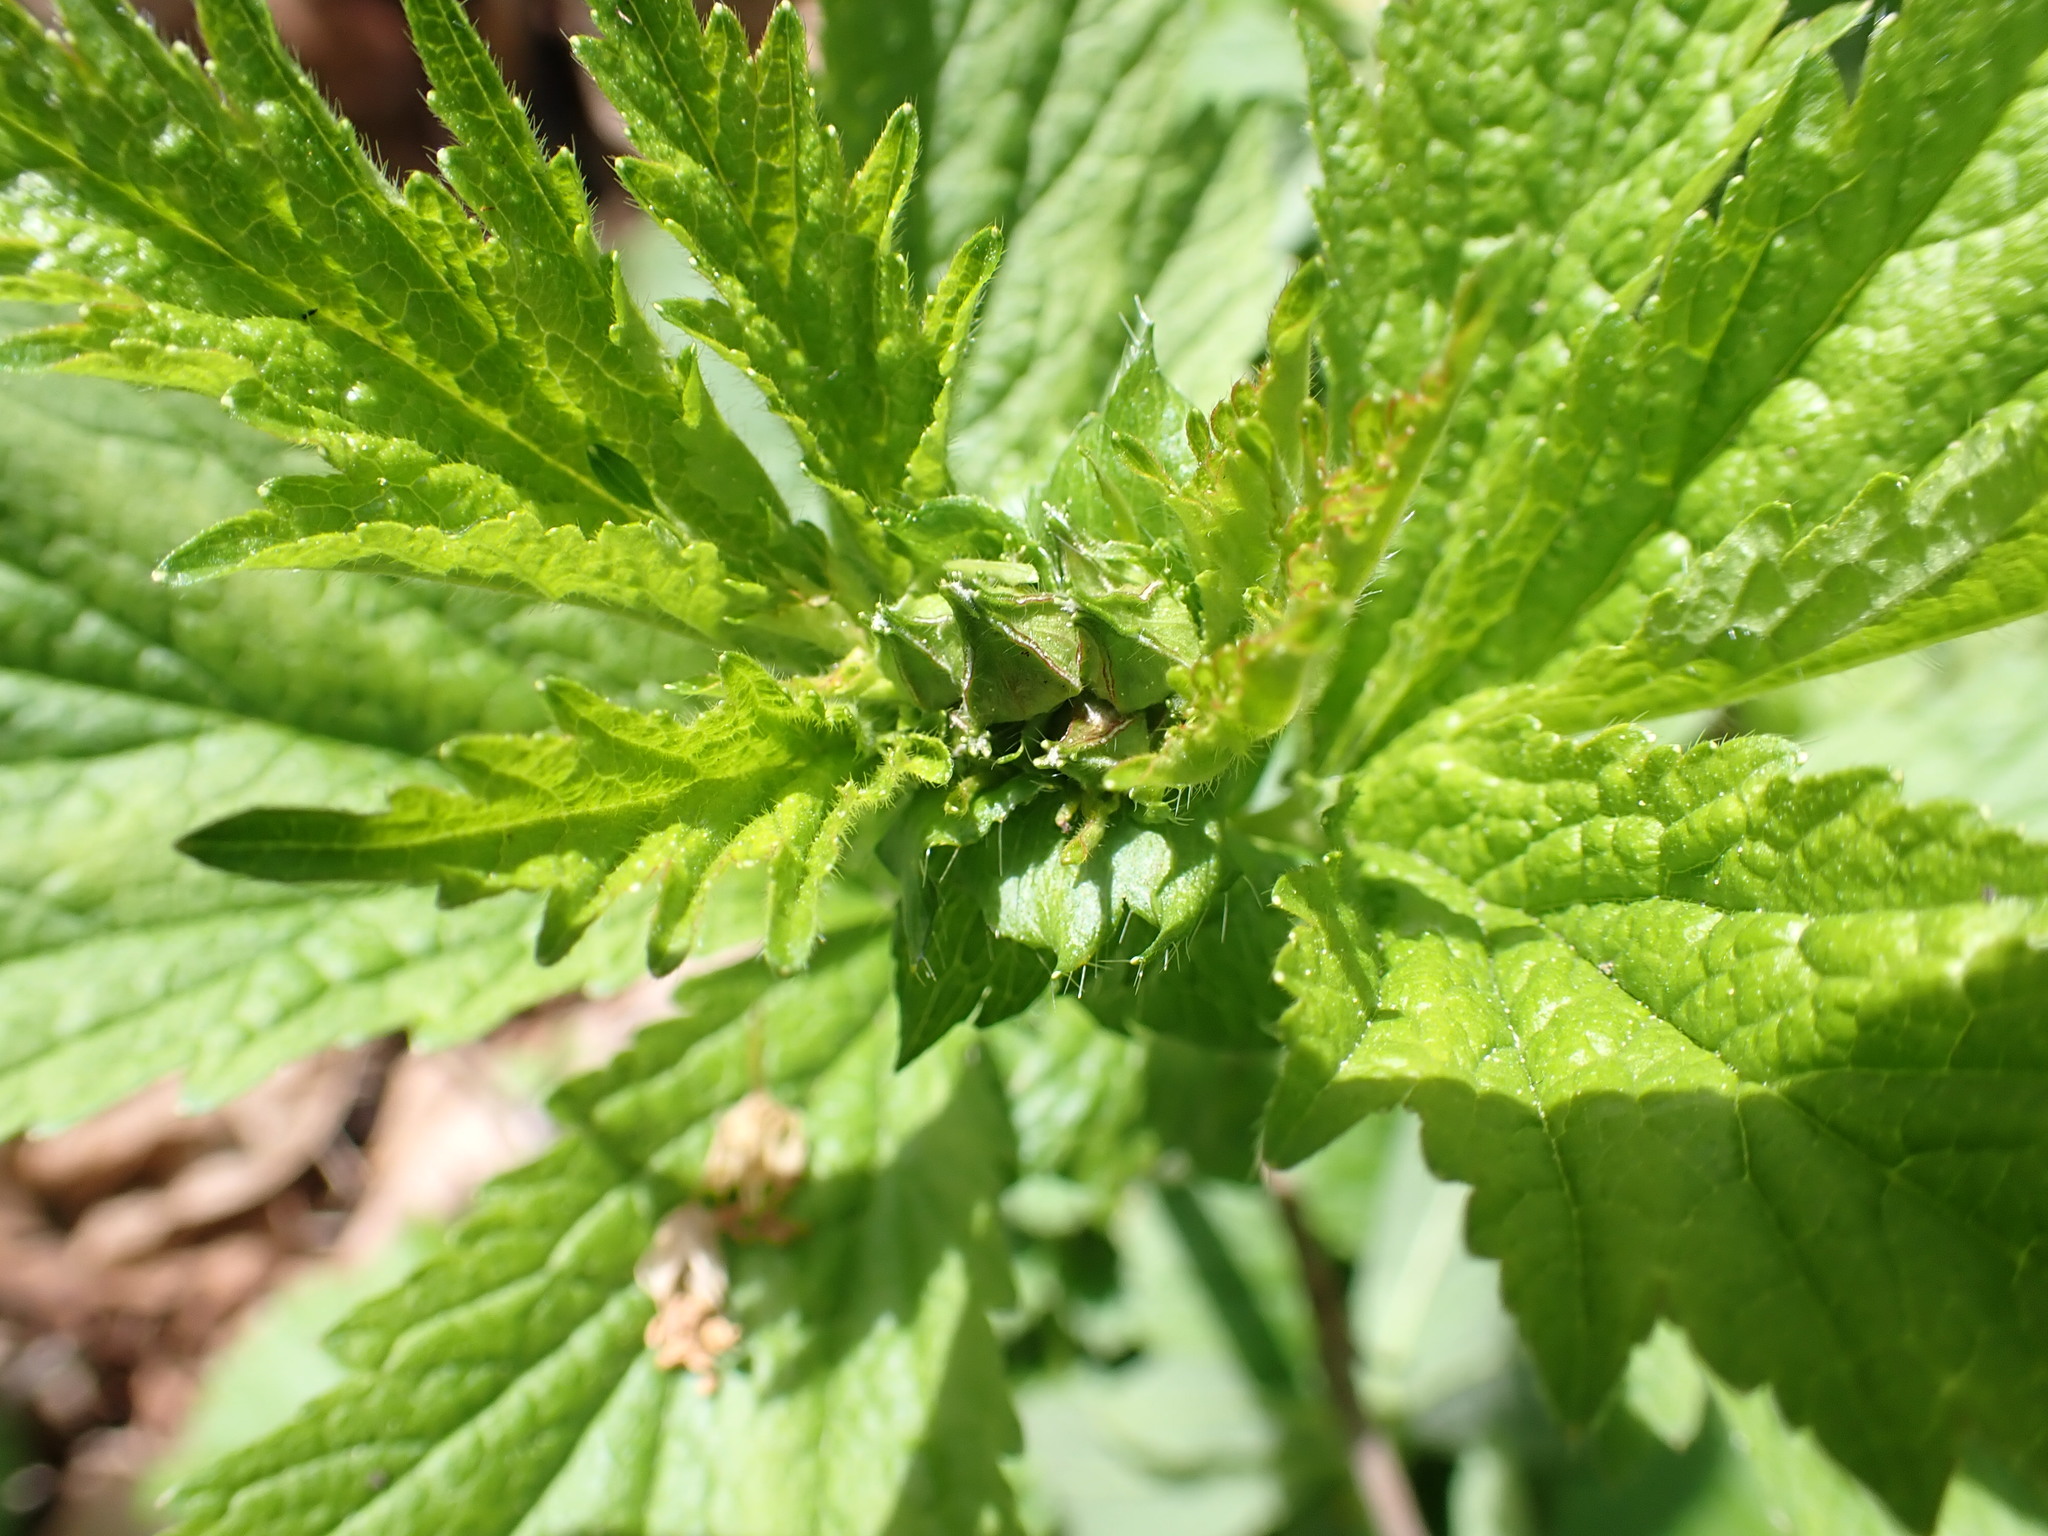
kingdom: Plantae
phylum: Tracheophyta
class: Magnoliopsida
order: Rosales
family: Rosaceae
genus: Geum
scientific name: Geum macrophyllum
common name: Large-leaved avens
